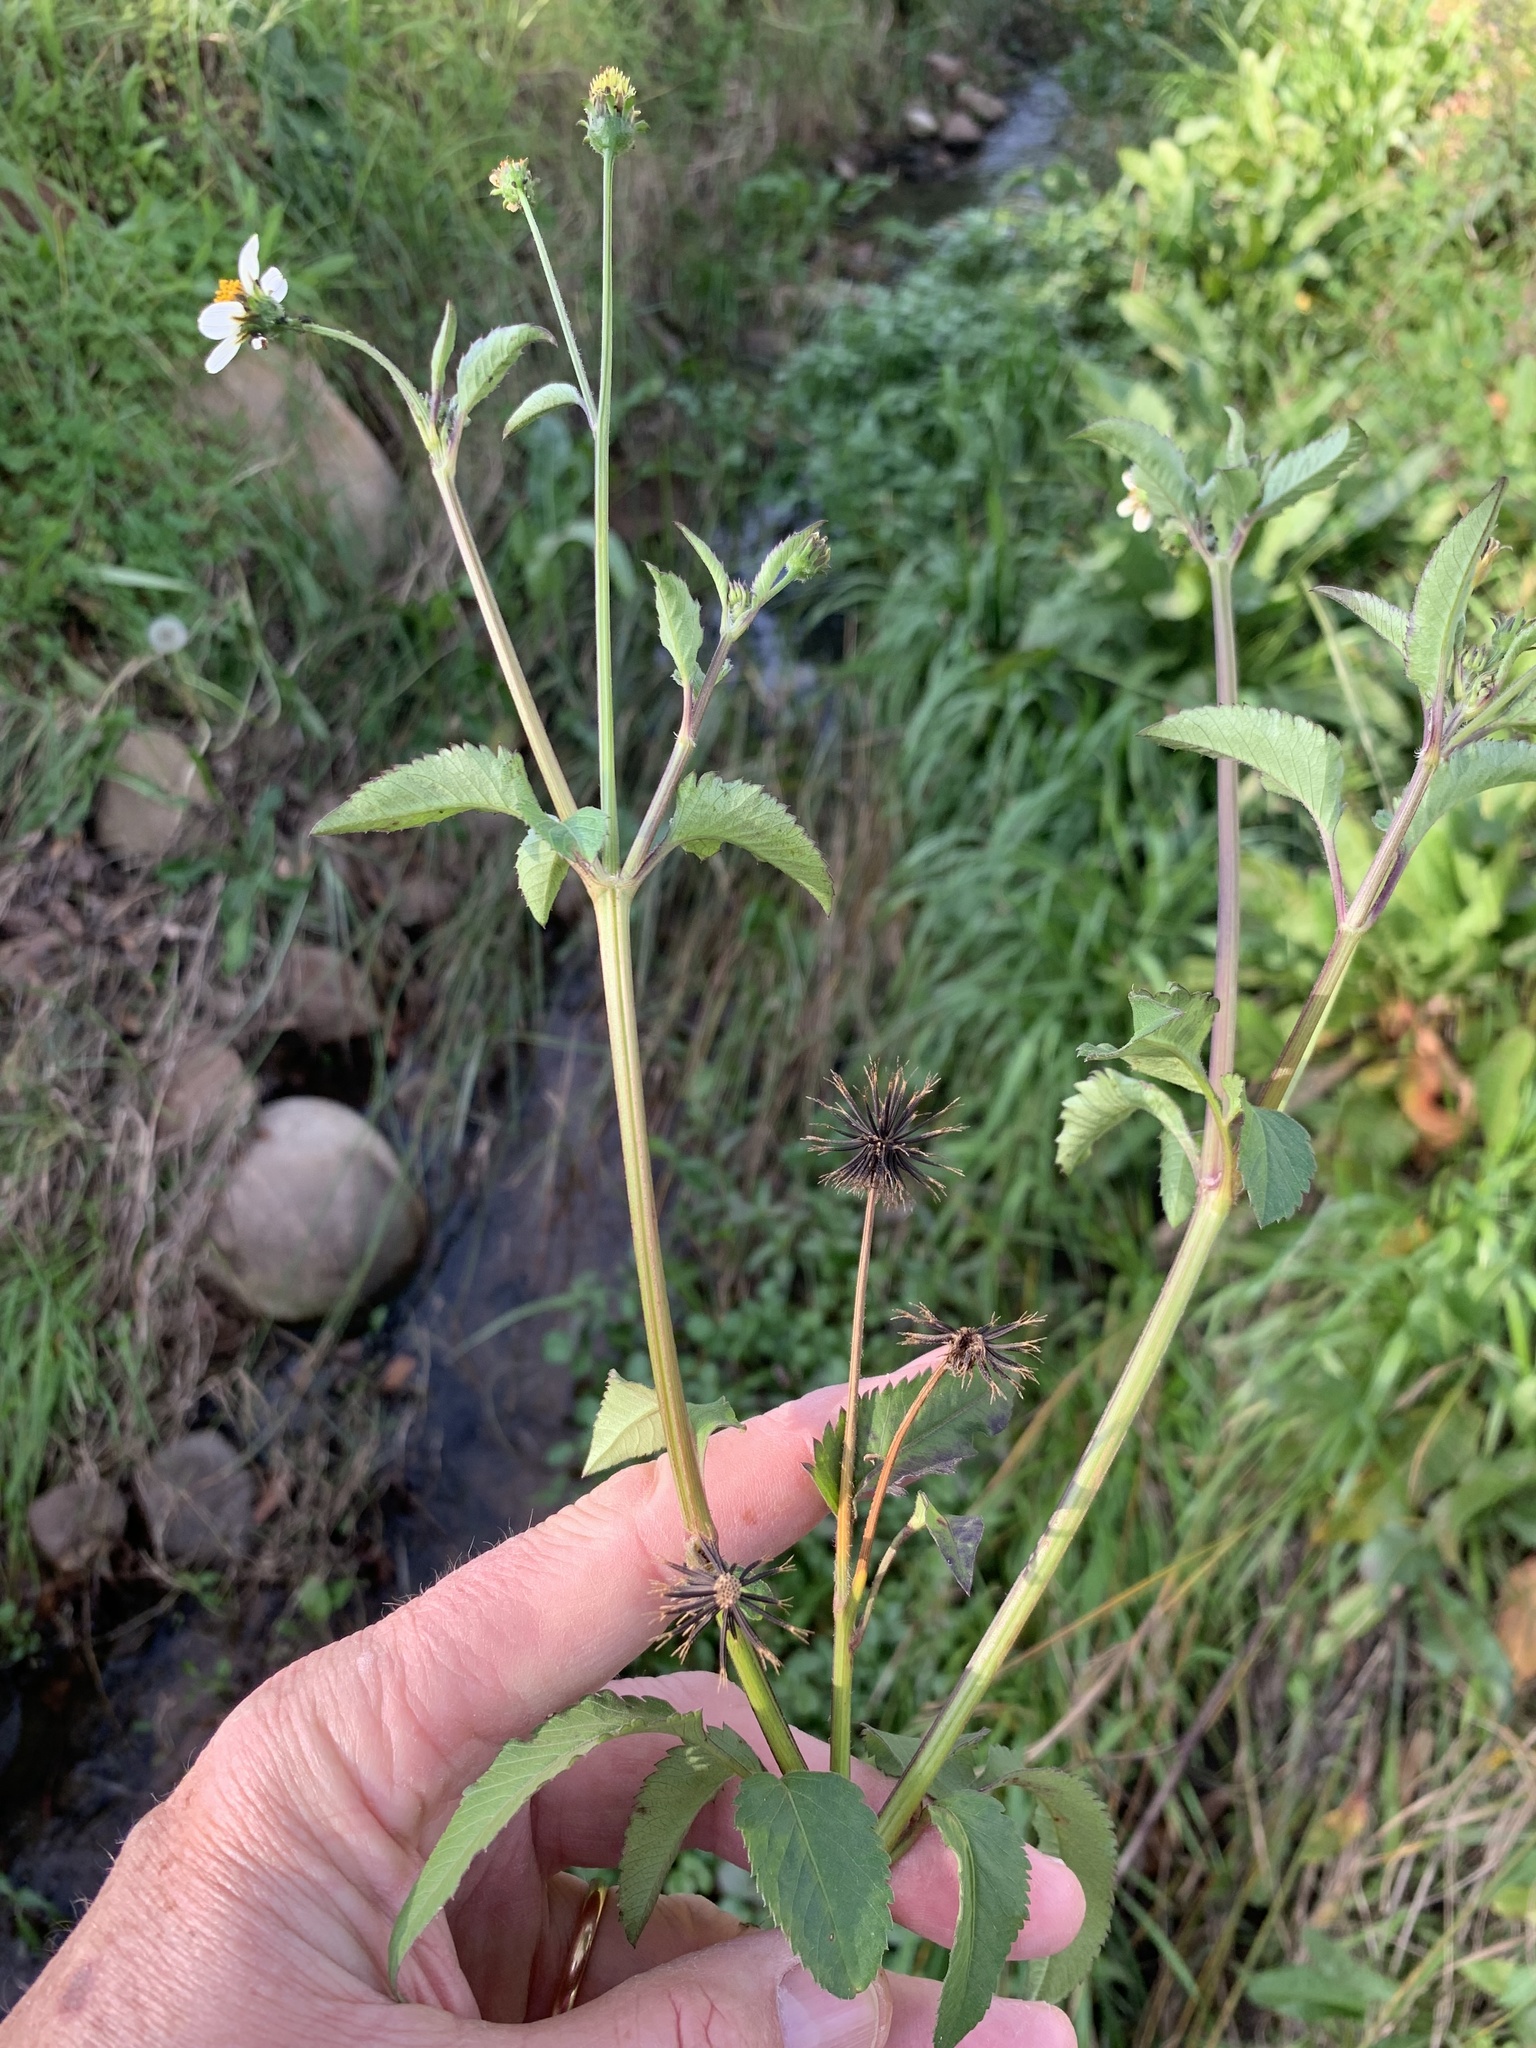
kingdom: Plantae
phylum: Tracheophyta
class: Magnoliopsida
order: Asterales
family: Asteraceae
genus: Bidens
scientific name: Bidens pilosa
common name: Black-jack
